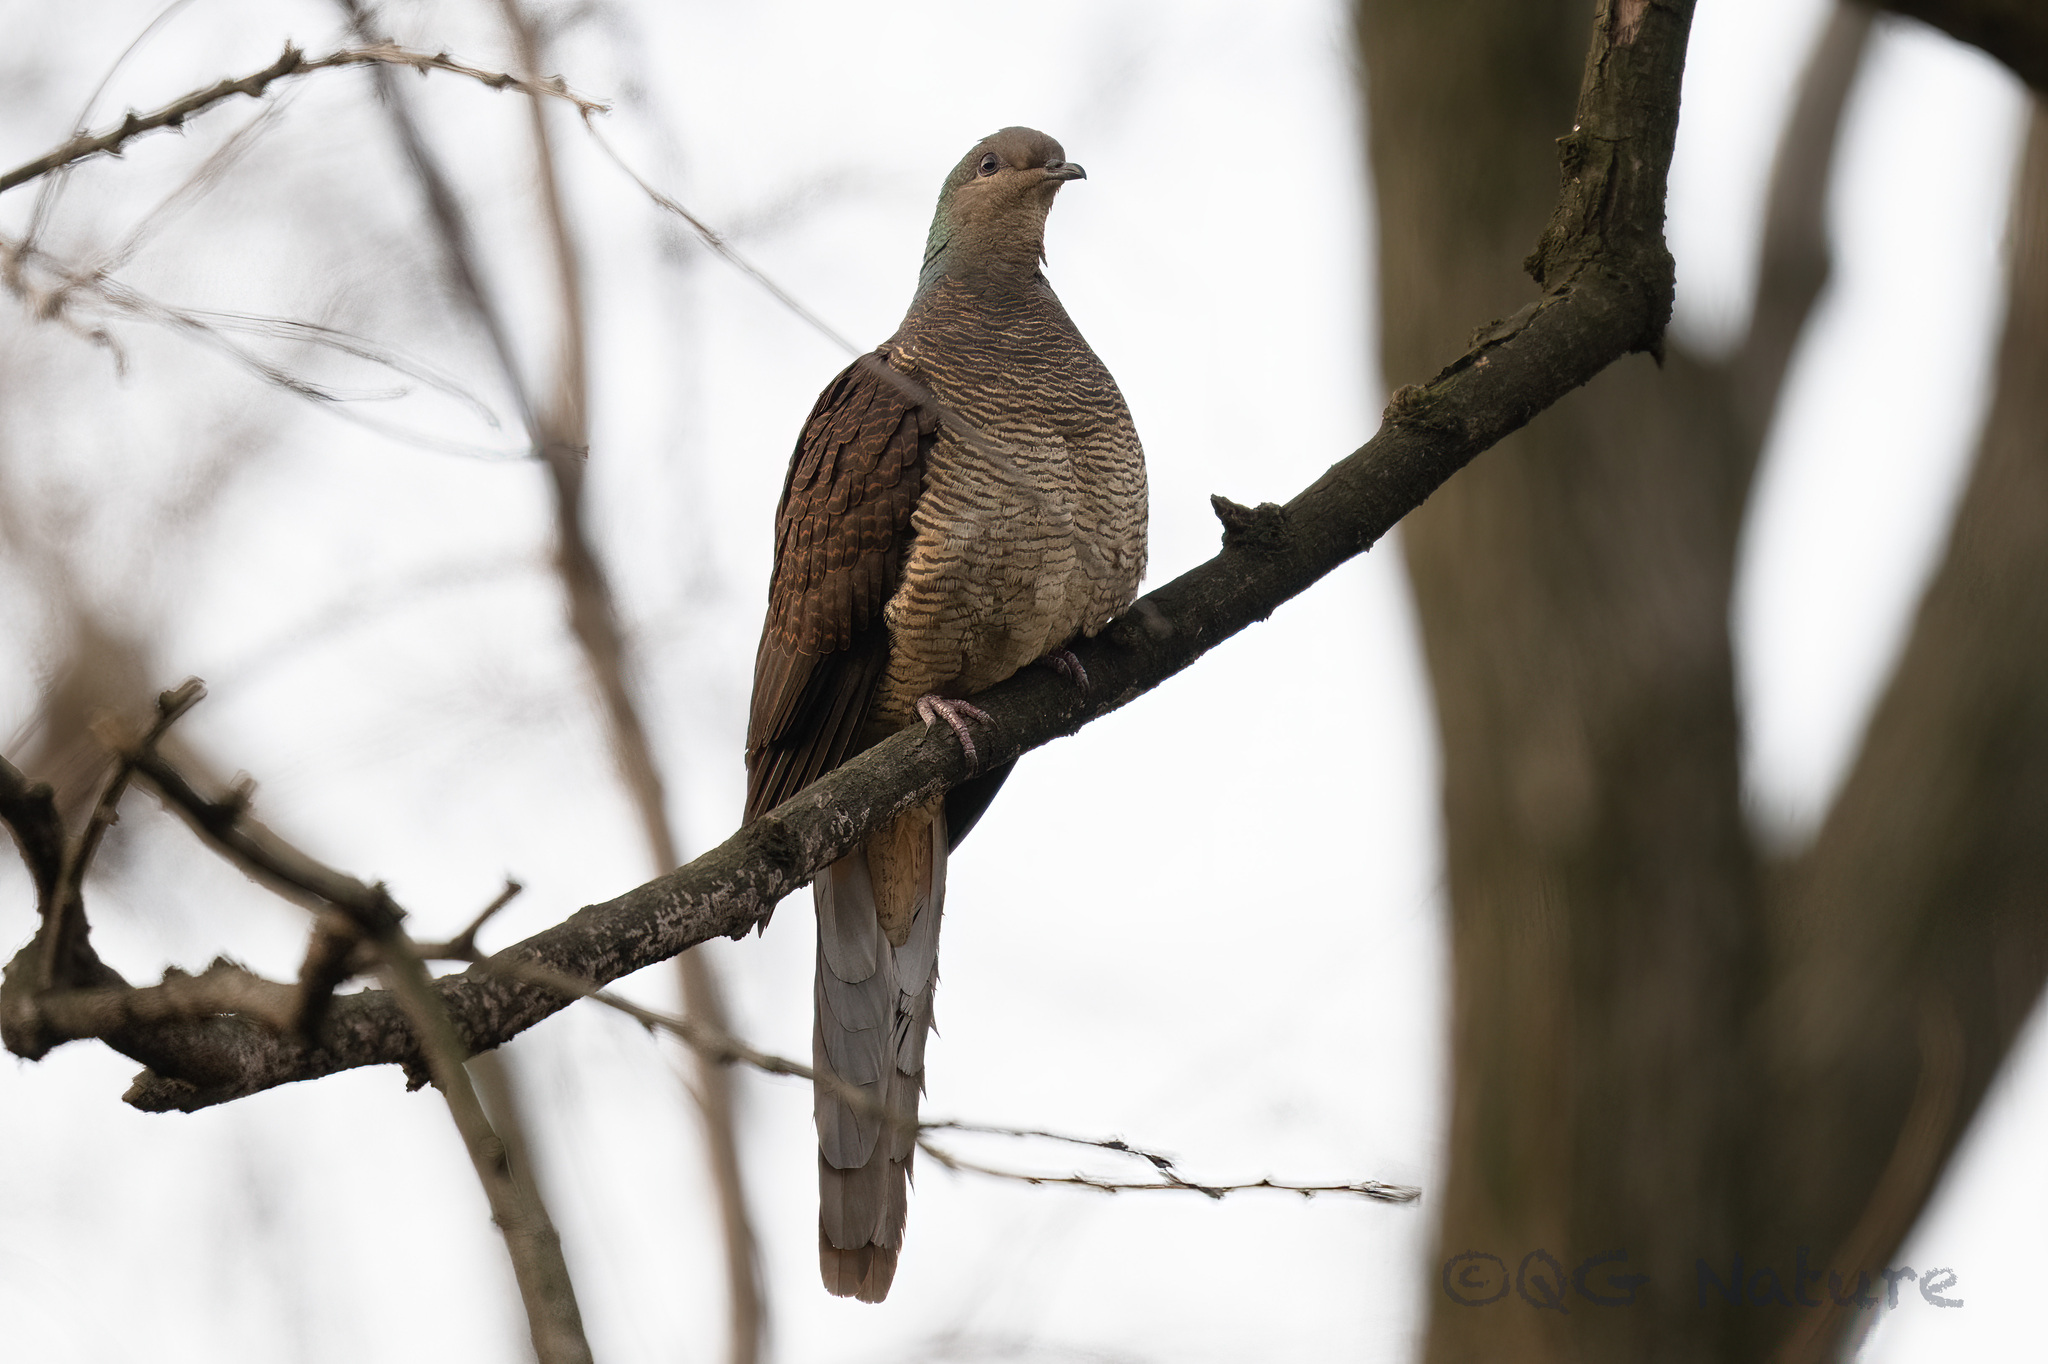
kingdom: Animalia
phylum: Chordata
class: Aves
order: Columbiformes
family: Columbidae
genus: Macropygia
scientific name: Macropygia unchall
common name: Barred cuckoo-dove
